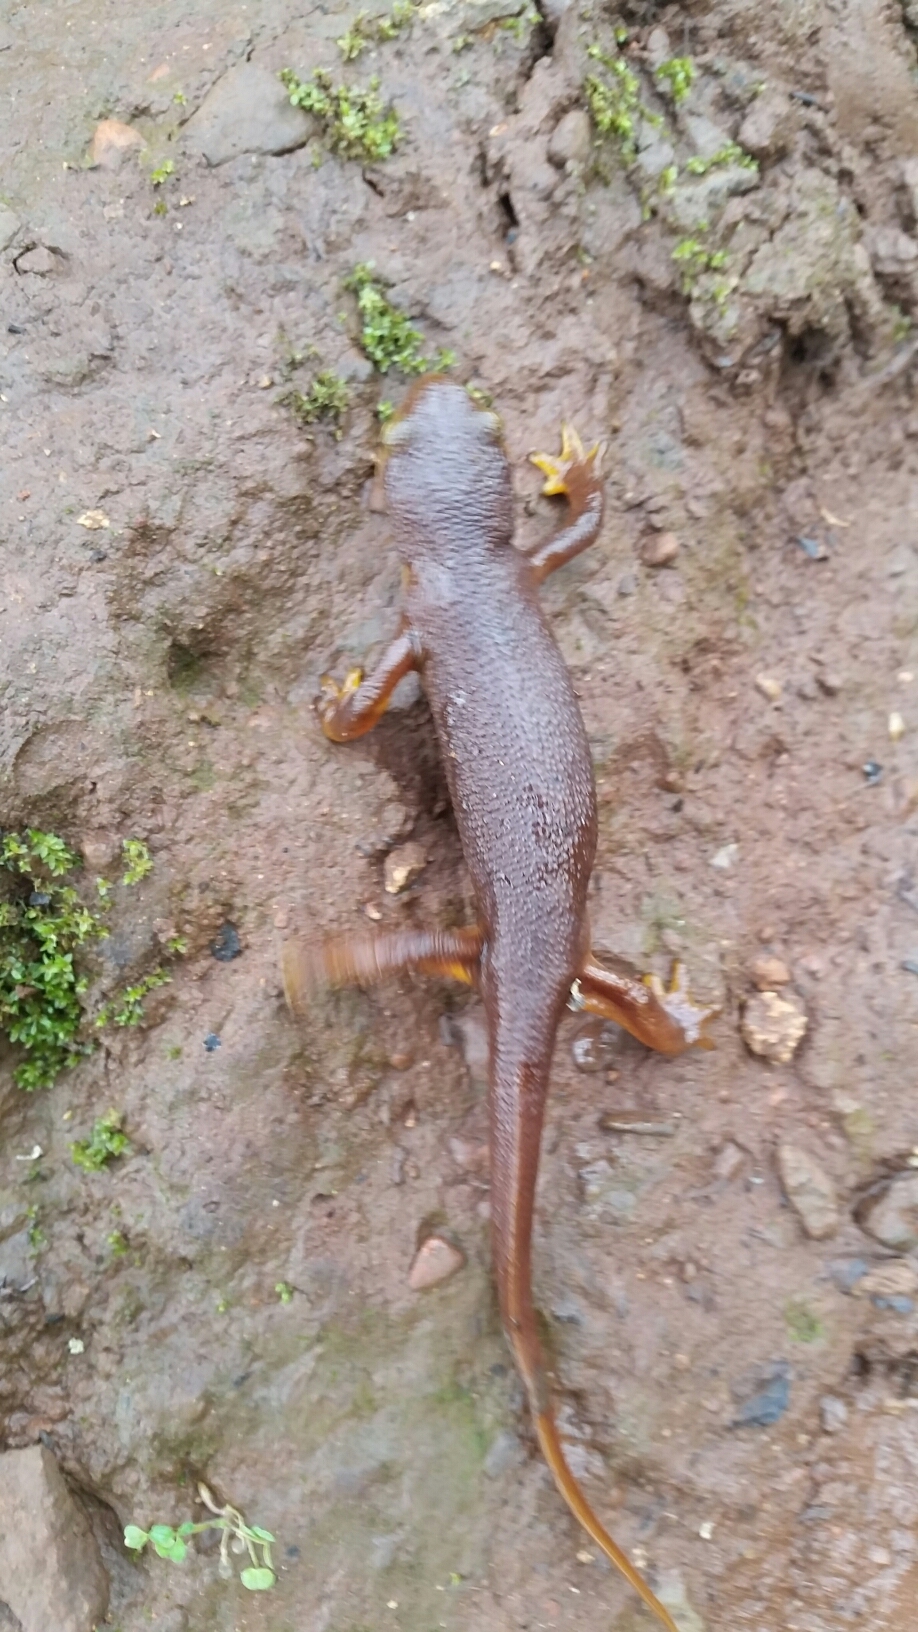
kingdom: Animalia
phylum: Chordata
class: Amphibia
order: Caudata
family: Salamandridae
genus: Taricha
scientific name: Taricha torosa
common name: California newt
